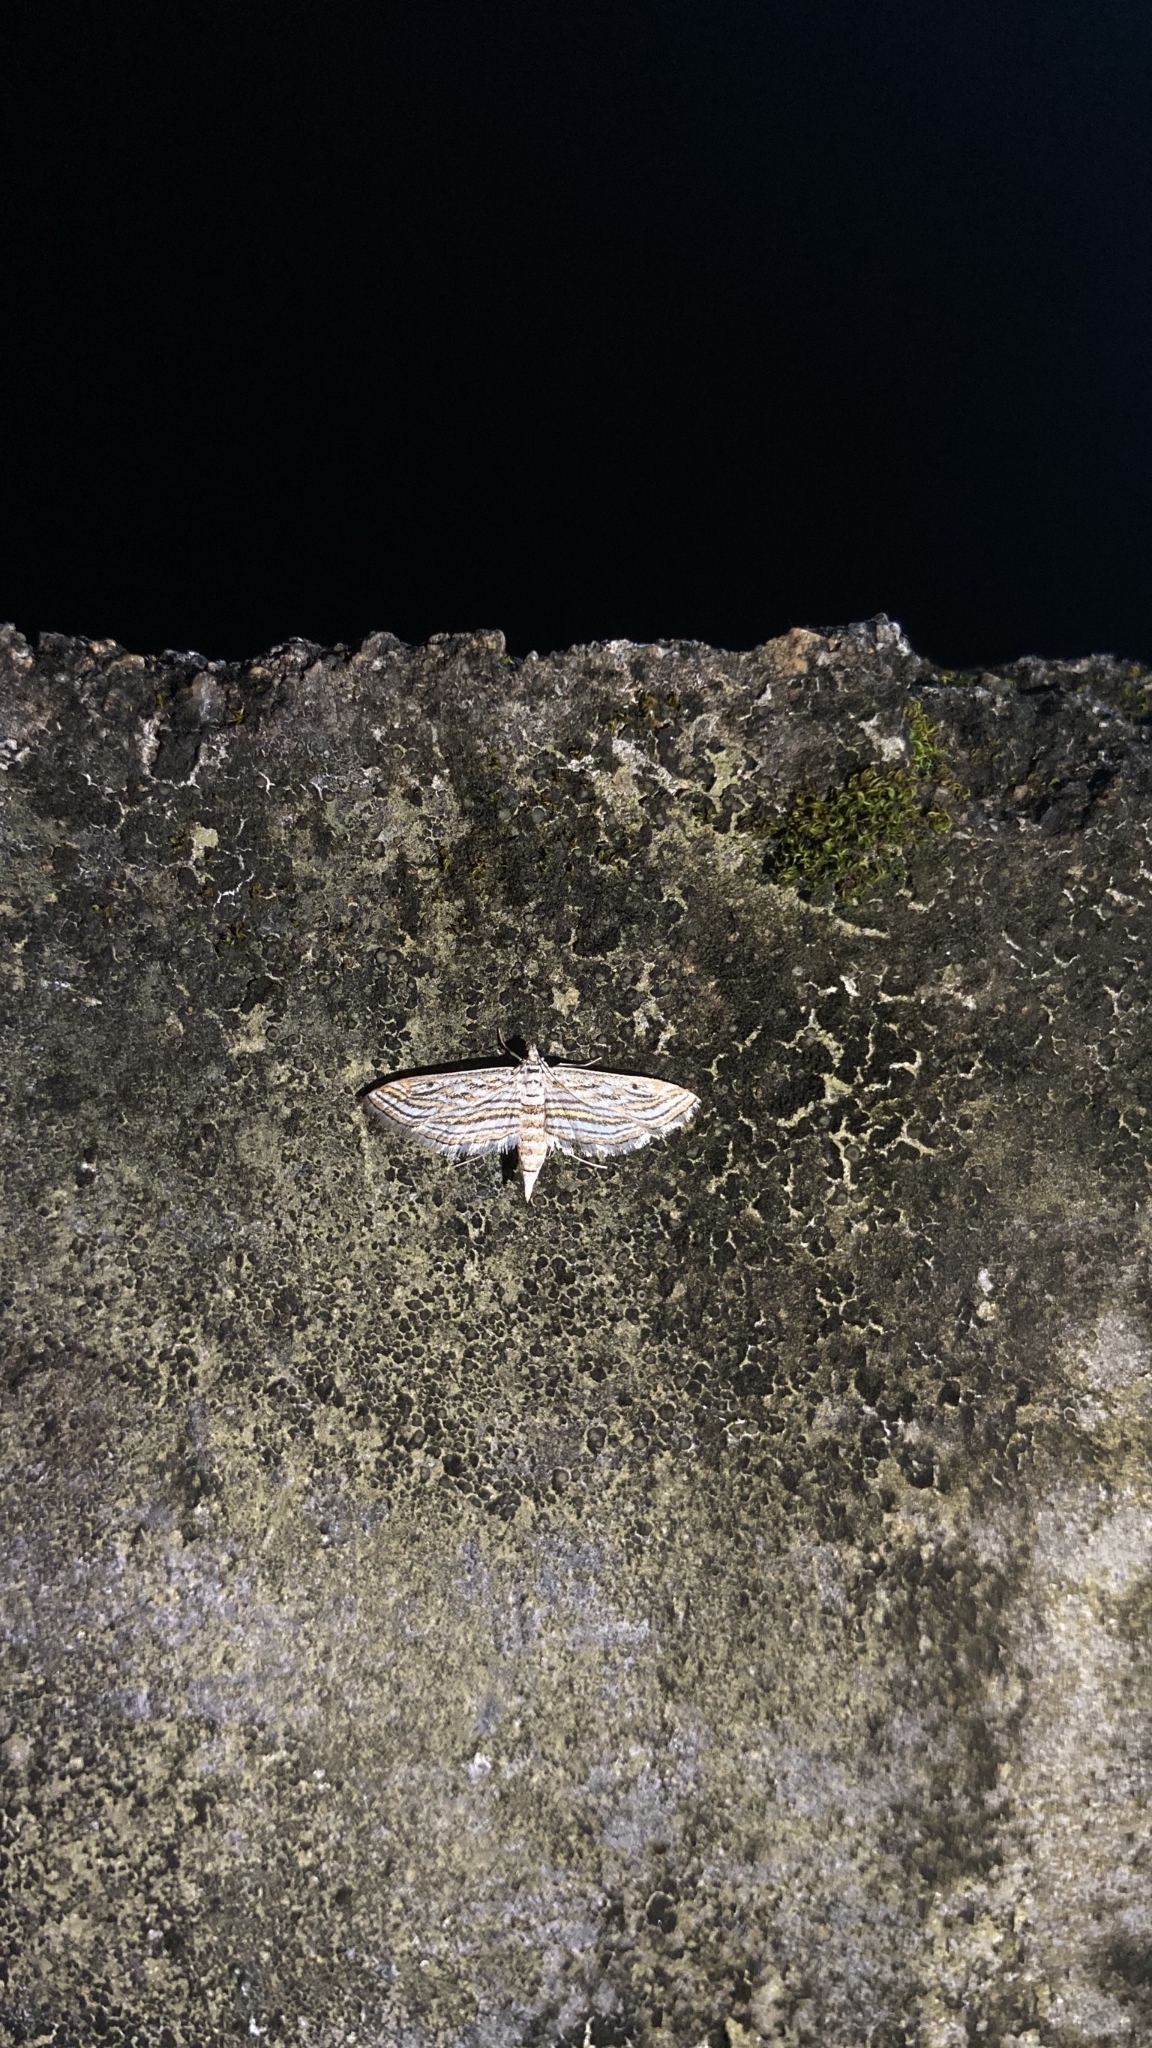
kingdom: Animalia
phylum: Arthropoda
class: Insecta
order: Lepidoptera
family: Crambidae
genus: Parapoynx
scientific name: Parapoynx fluctuosalis
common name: Moth
